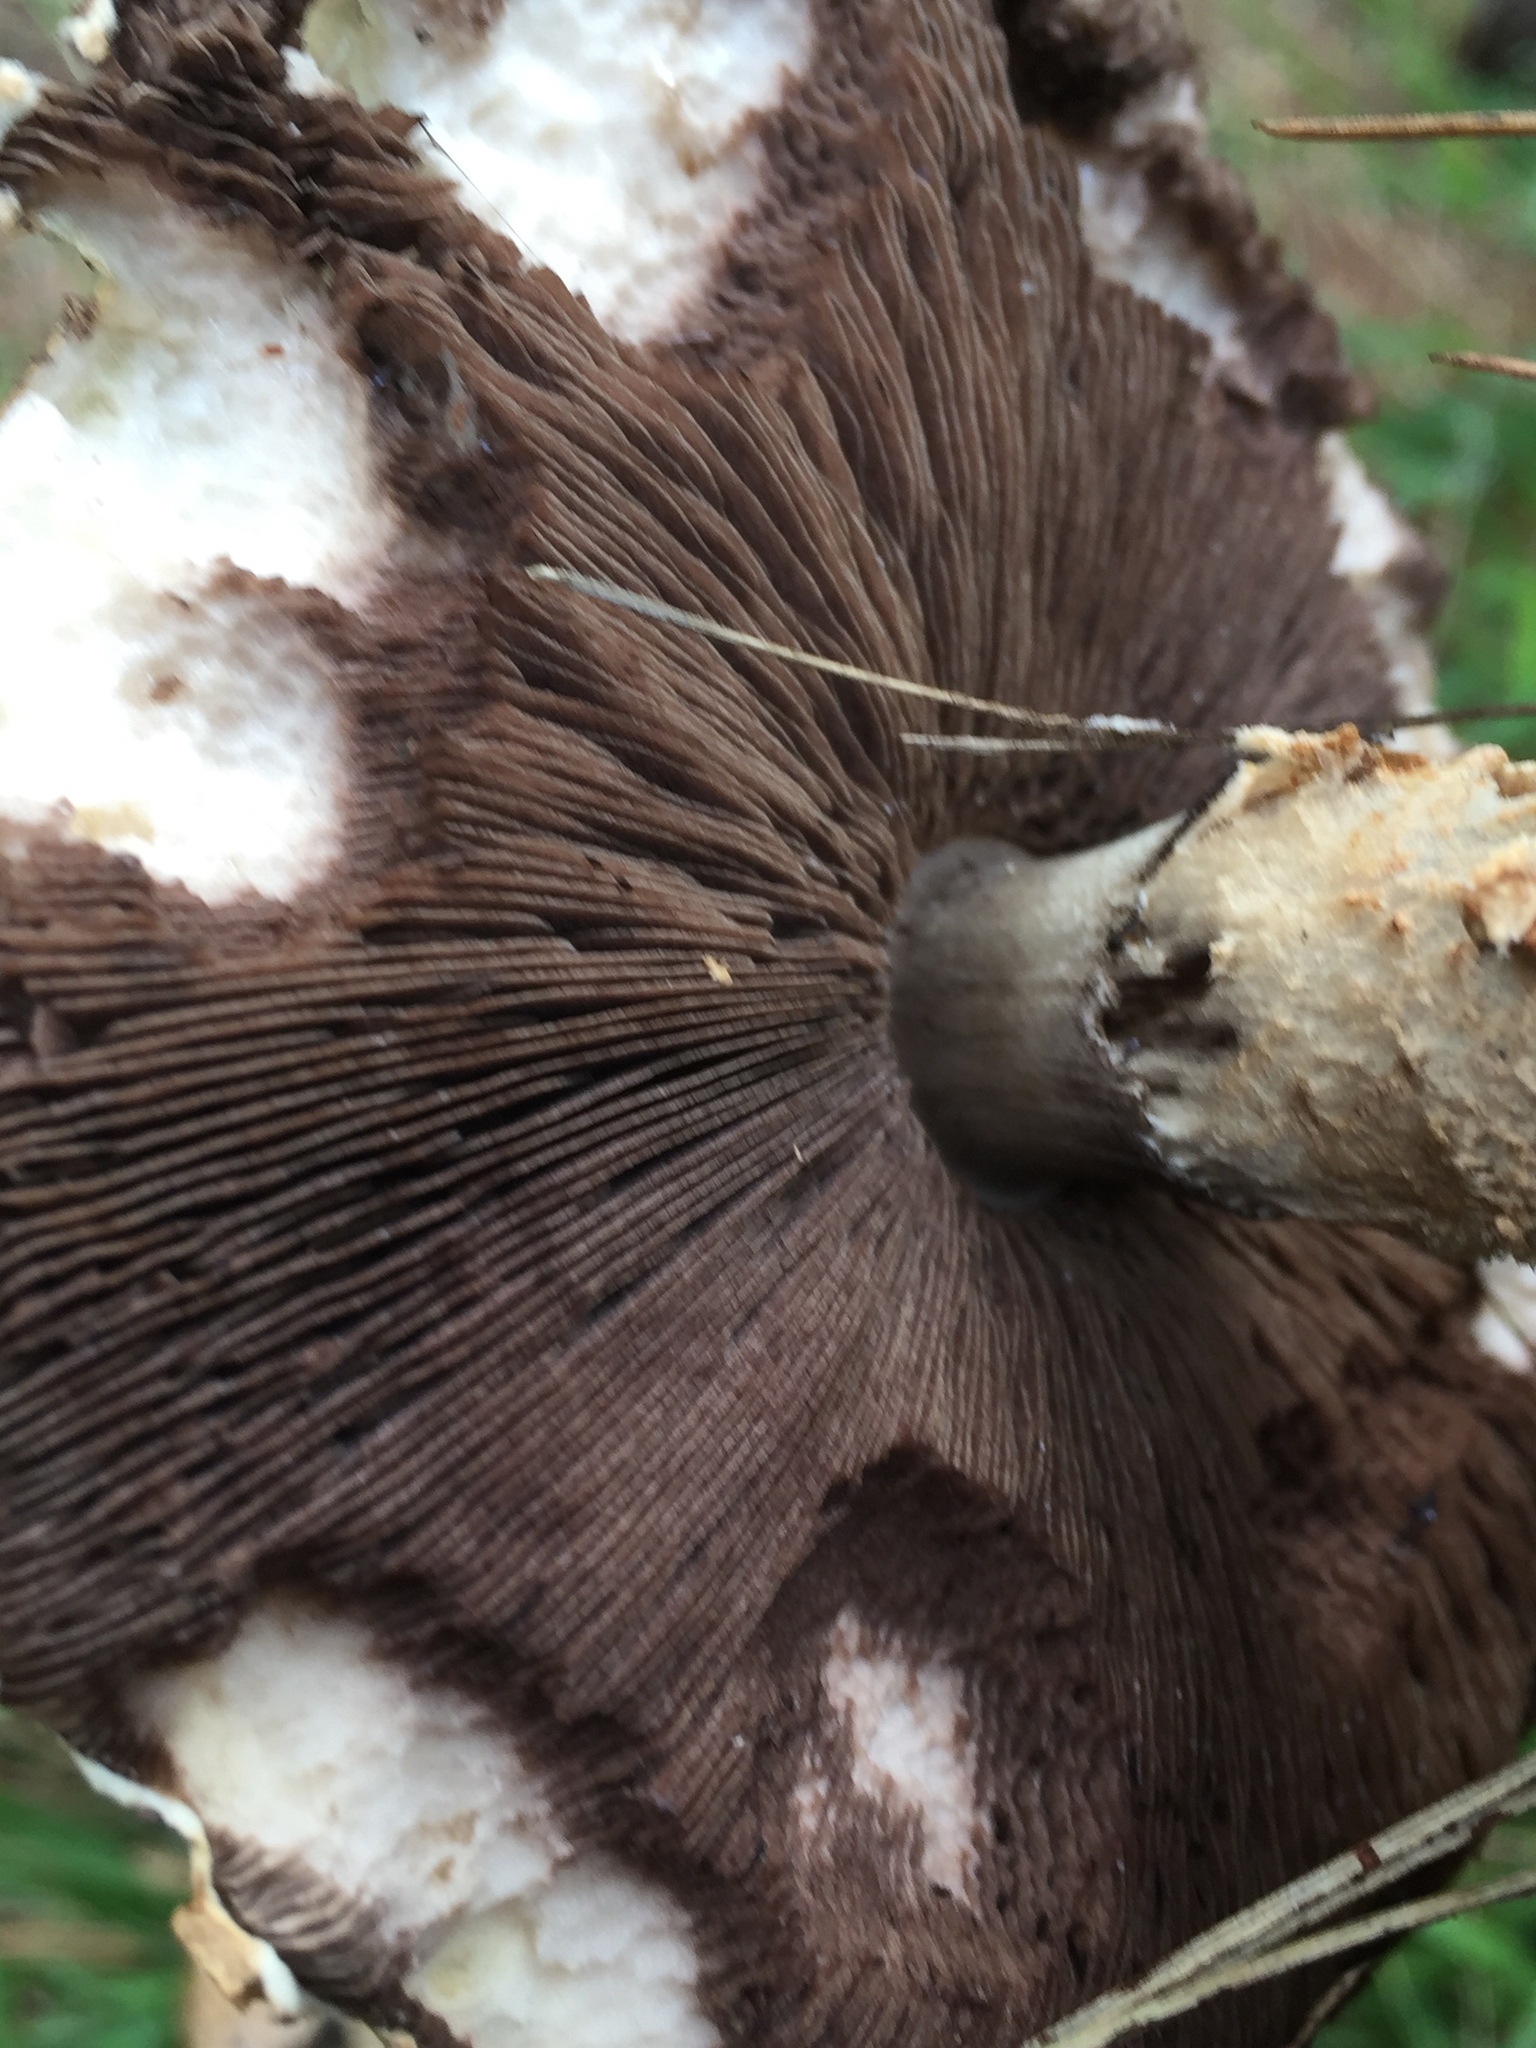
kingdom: Fungi
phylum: Basidiomycota
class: Agaricomycetes
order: Agaricales
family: Agaricaceae
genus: Agaricus
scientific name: Agaricus augustus
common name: Prince
